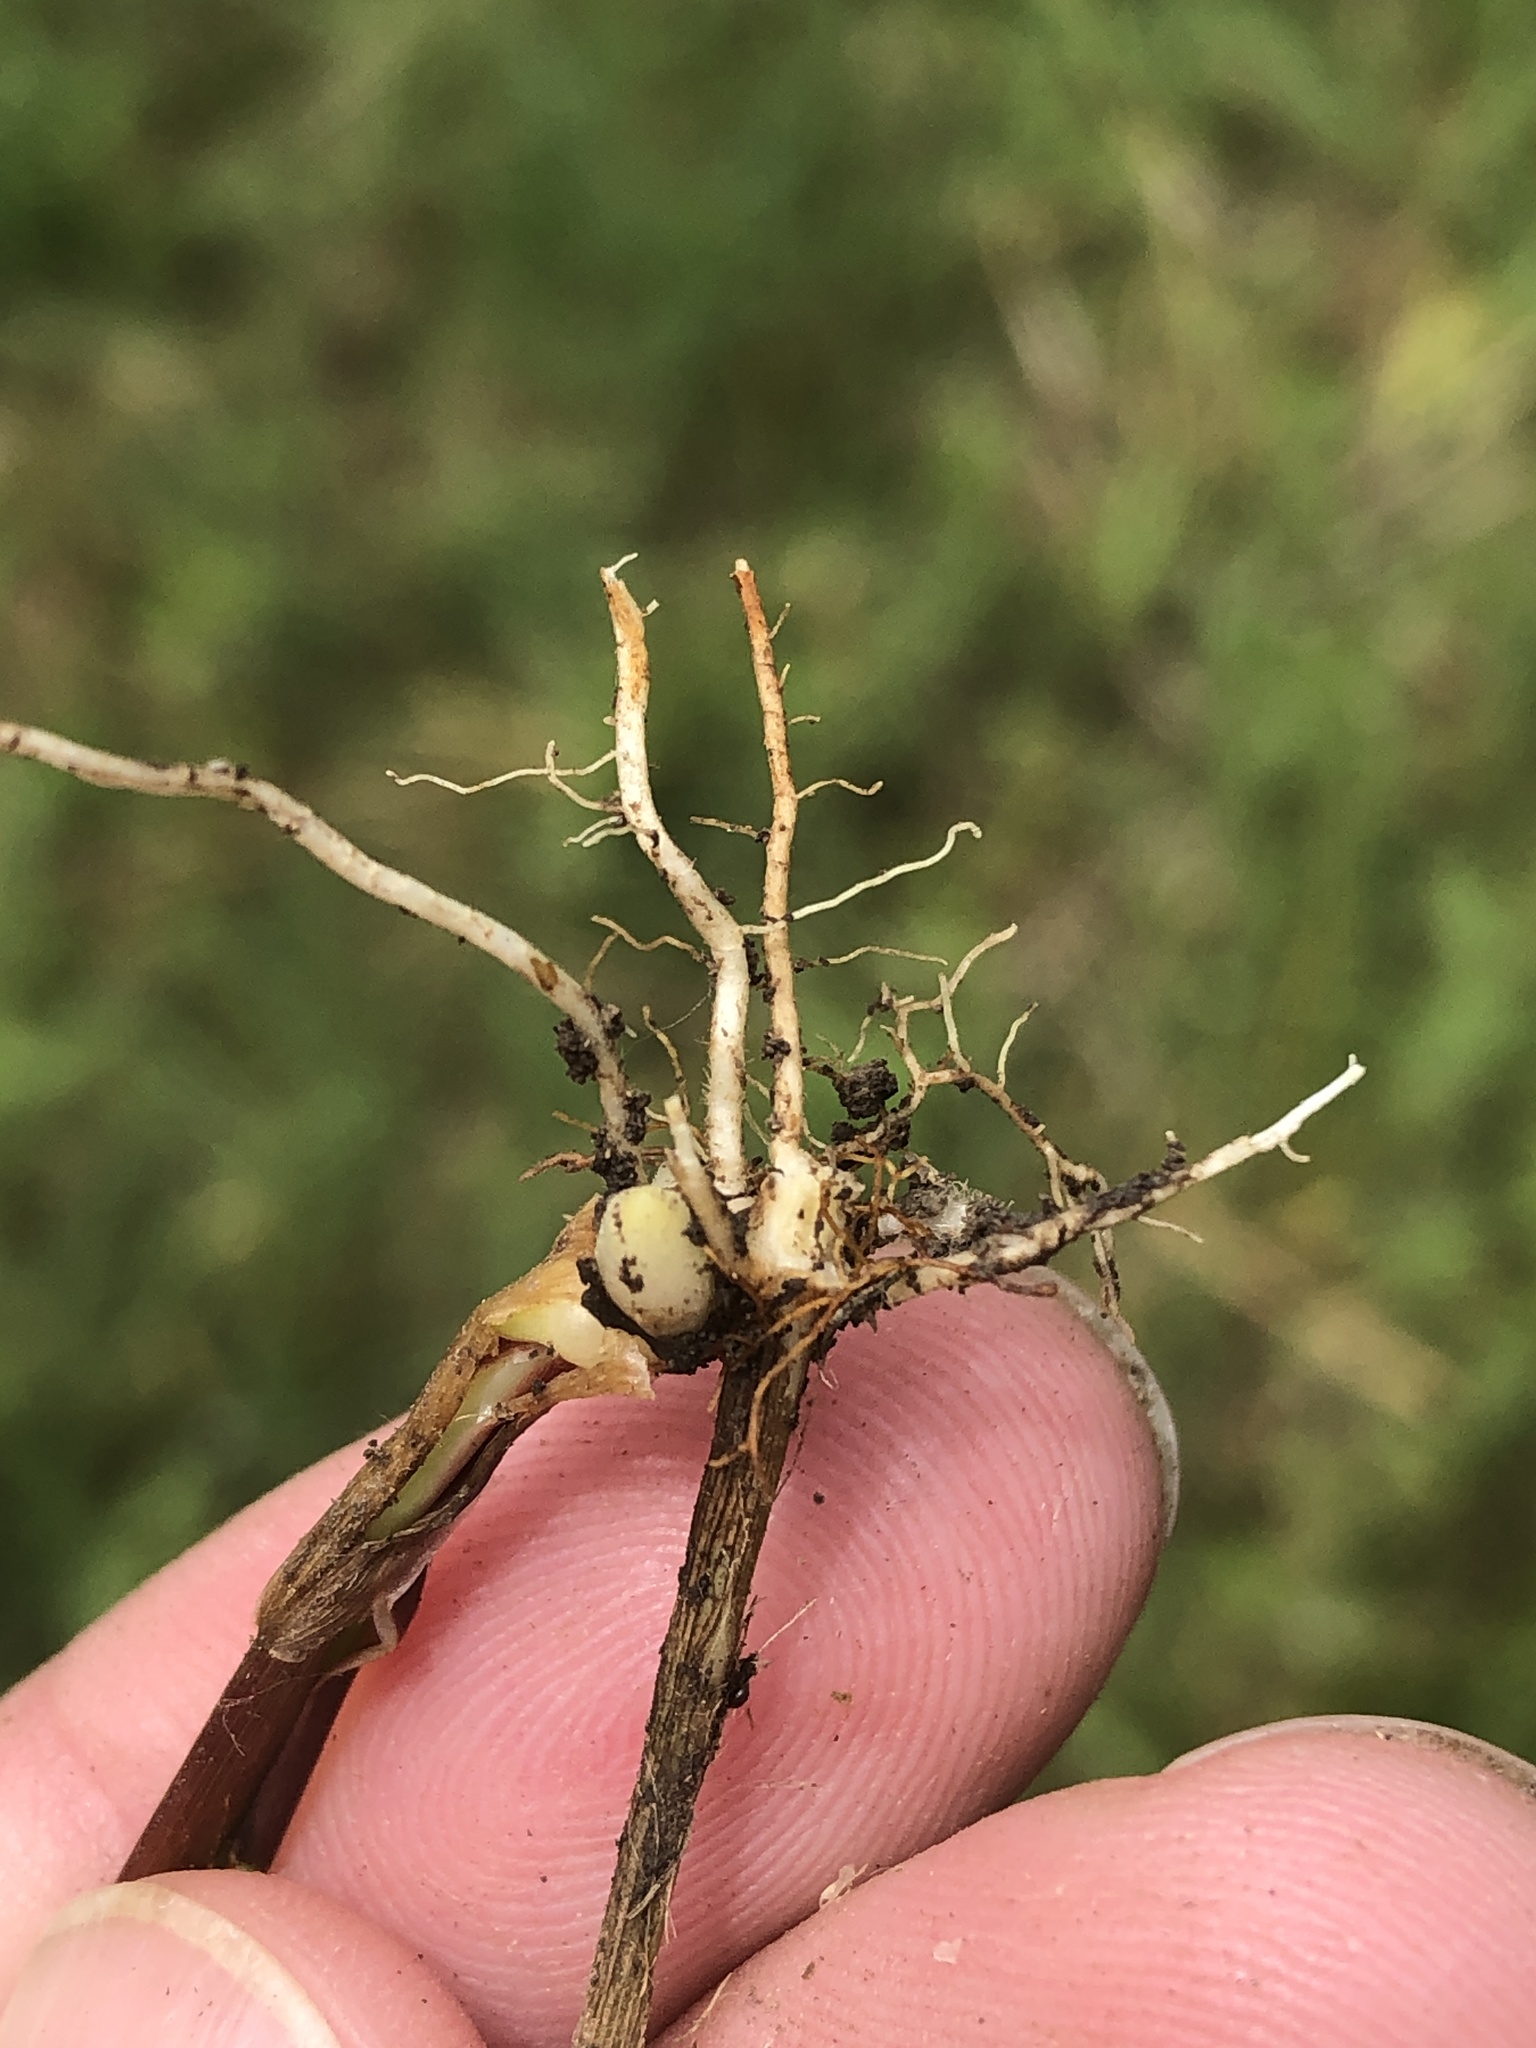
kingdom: Plantae
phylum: Tracheophyta
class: Liliopsida
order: Poales
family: Poaceae
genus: Setaria
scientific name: Setaria parviflora
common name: Knotroot bristle-grass
